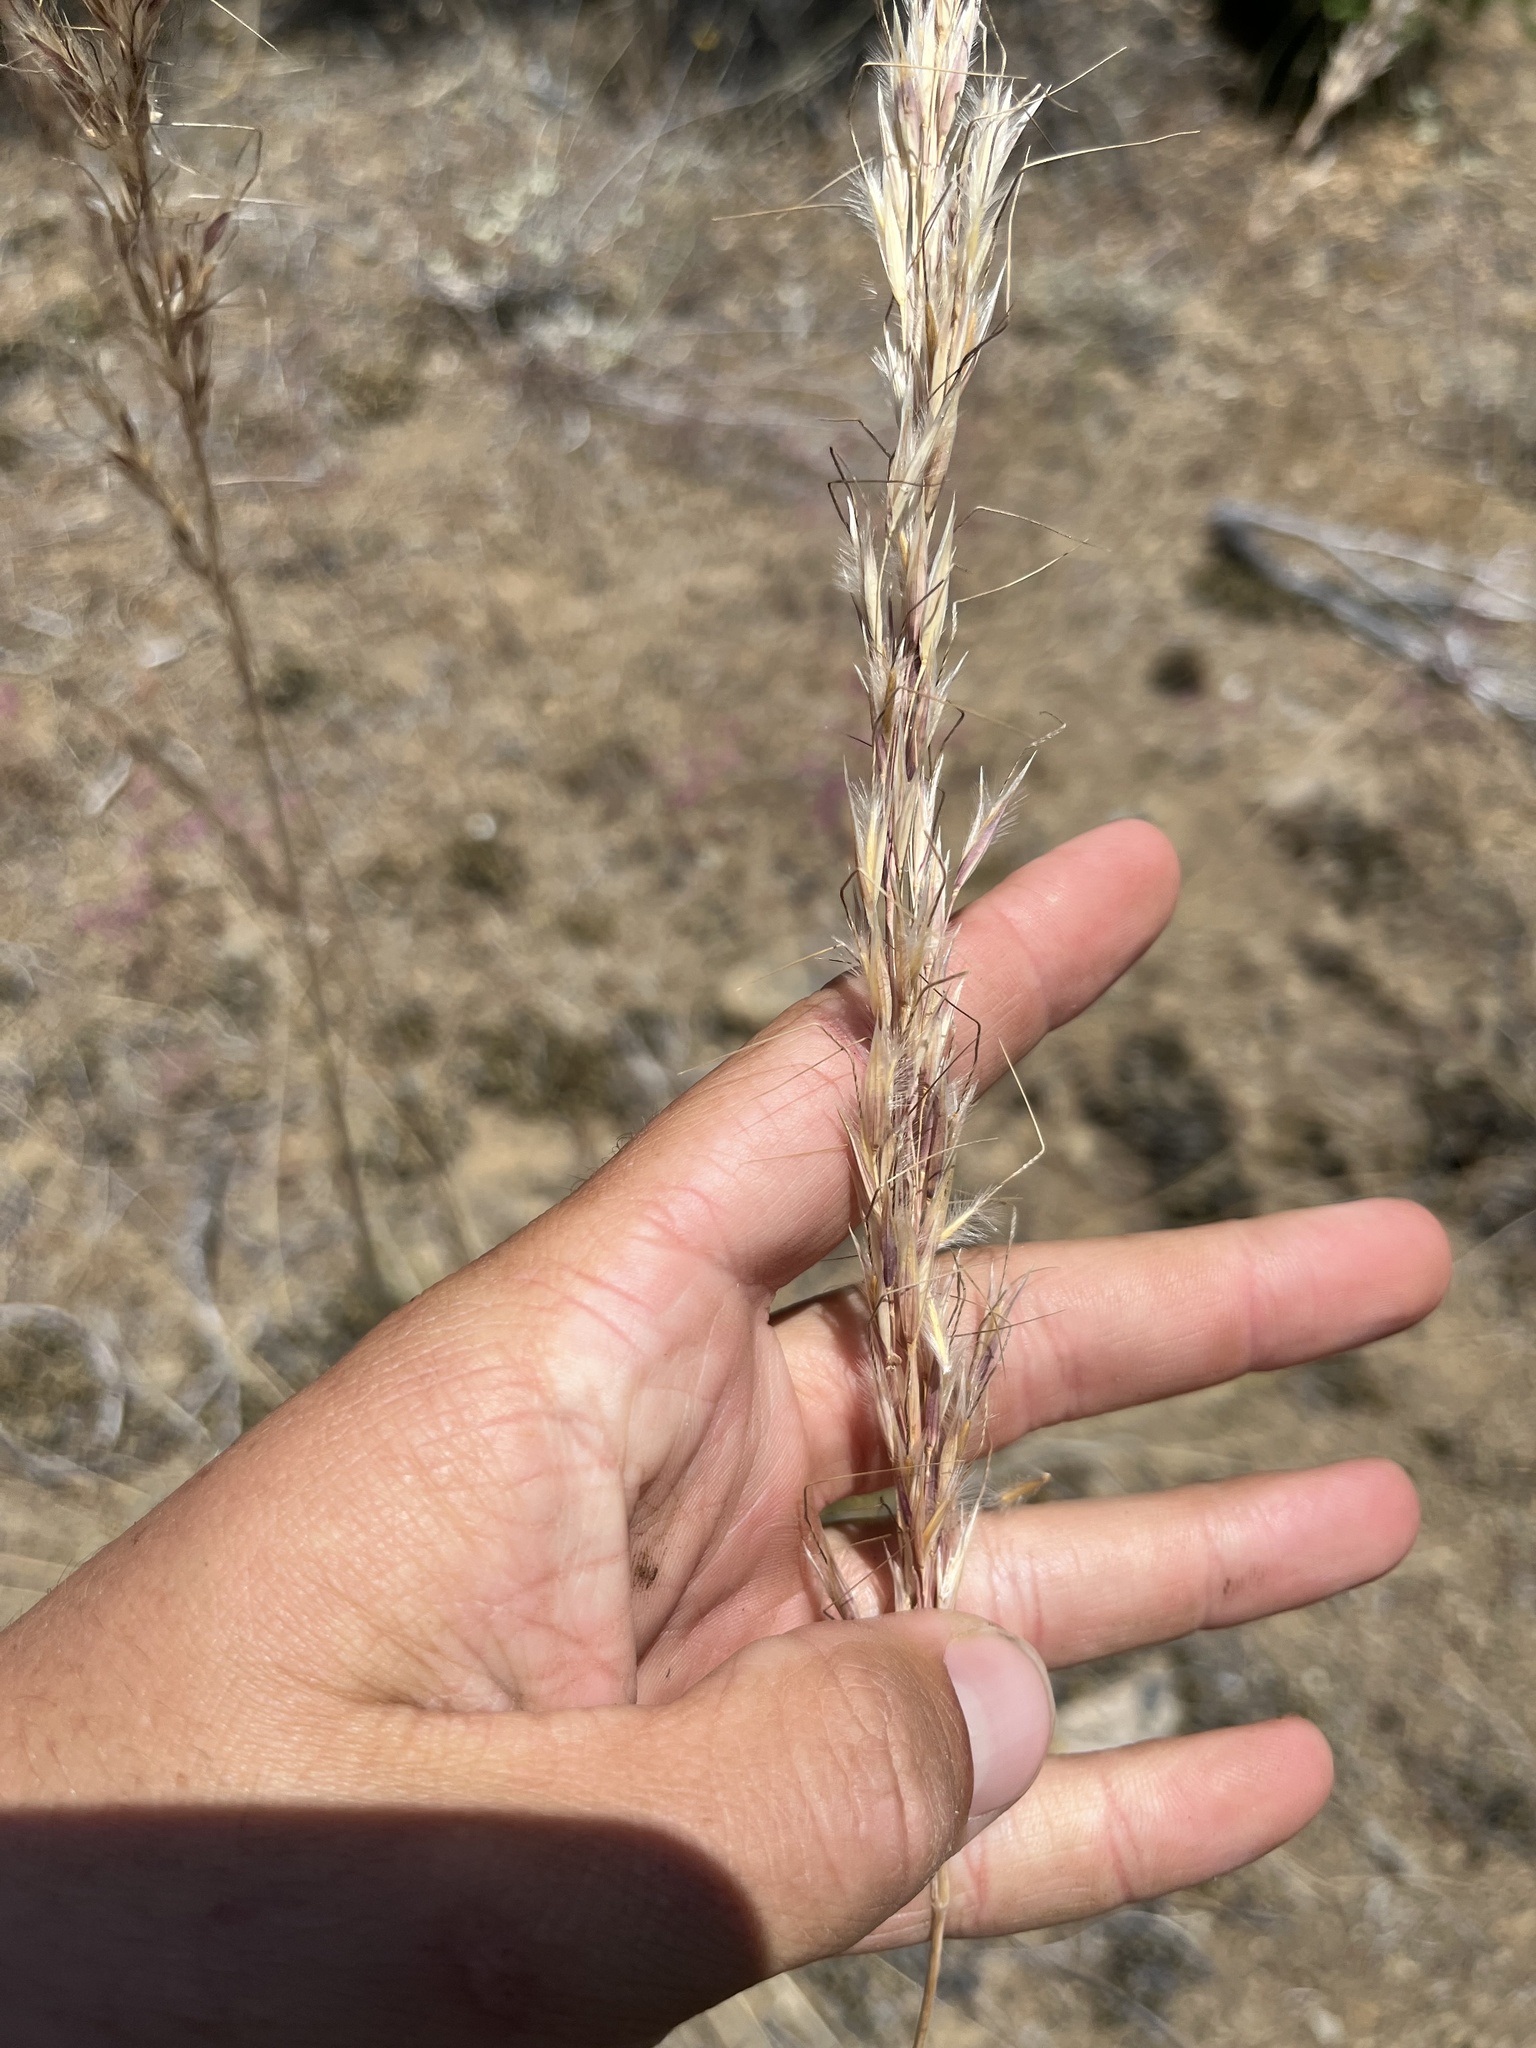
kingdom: Plantae
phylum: Tracheophyta
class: Liliopsida
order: Poales
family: Poaceae
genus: Eriocoma
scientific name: Eriocoma coronata
